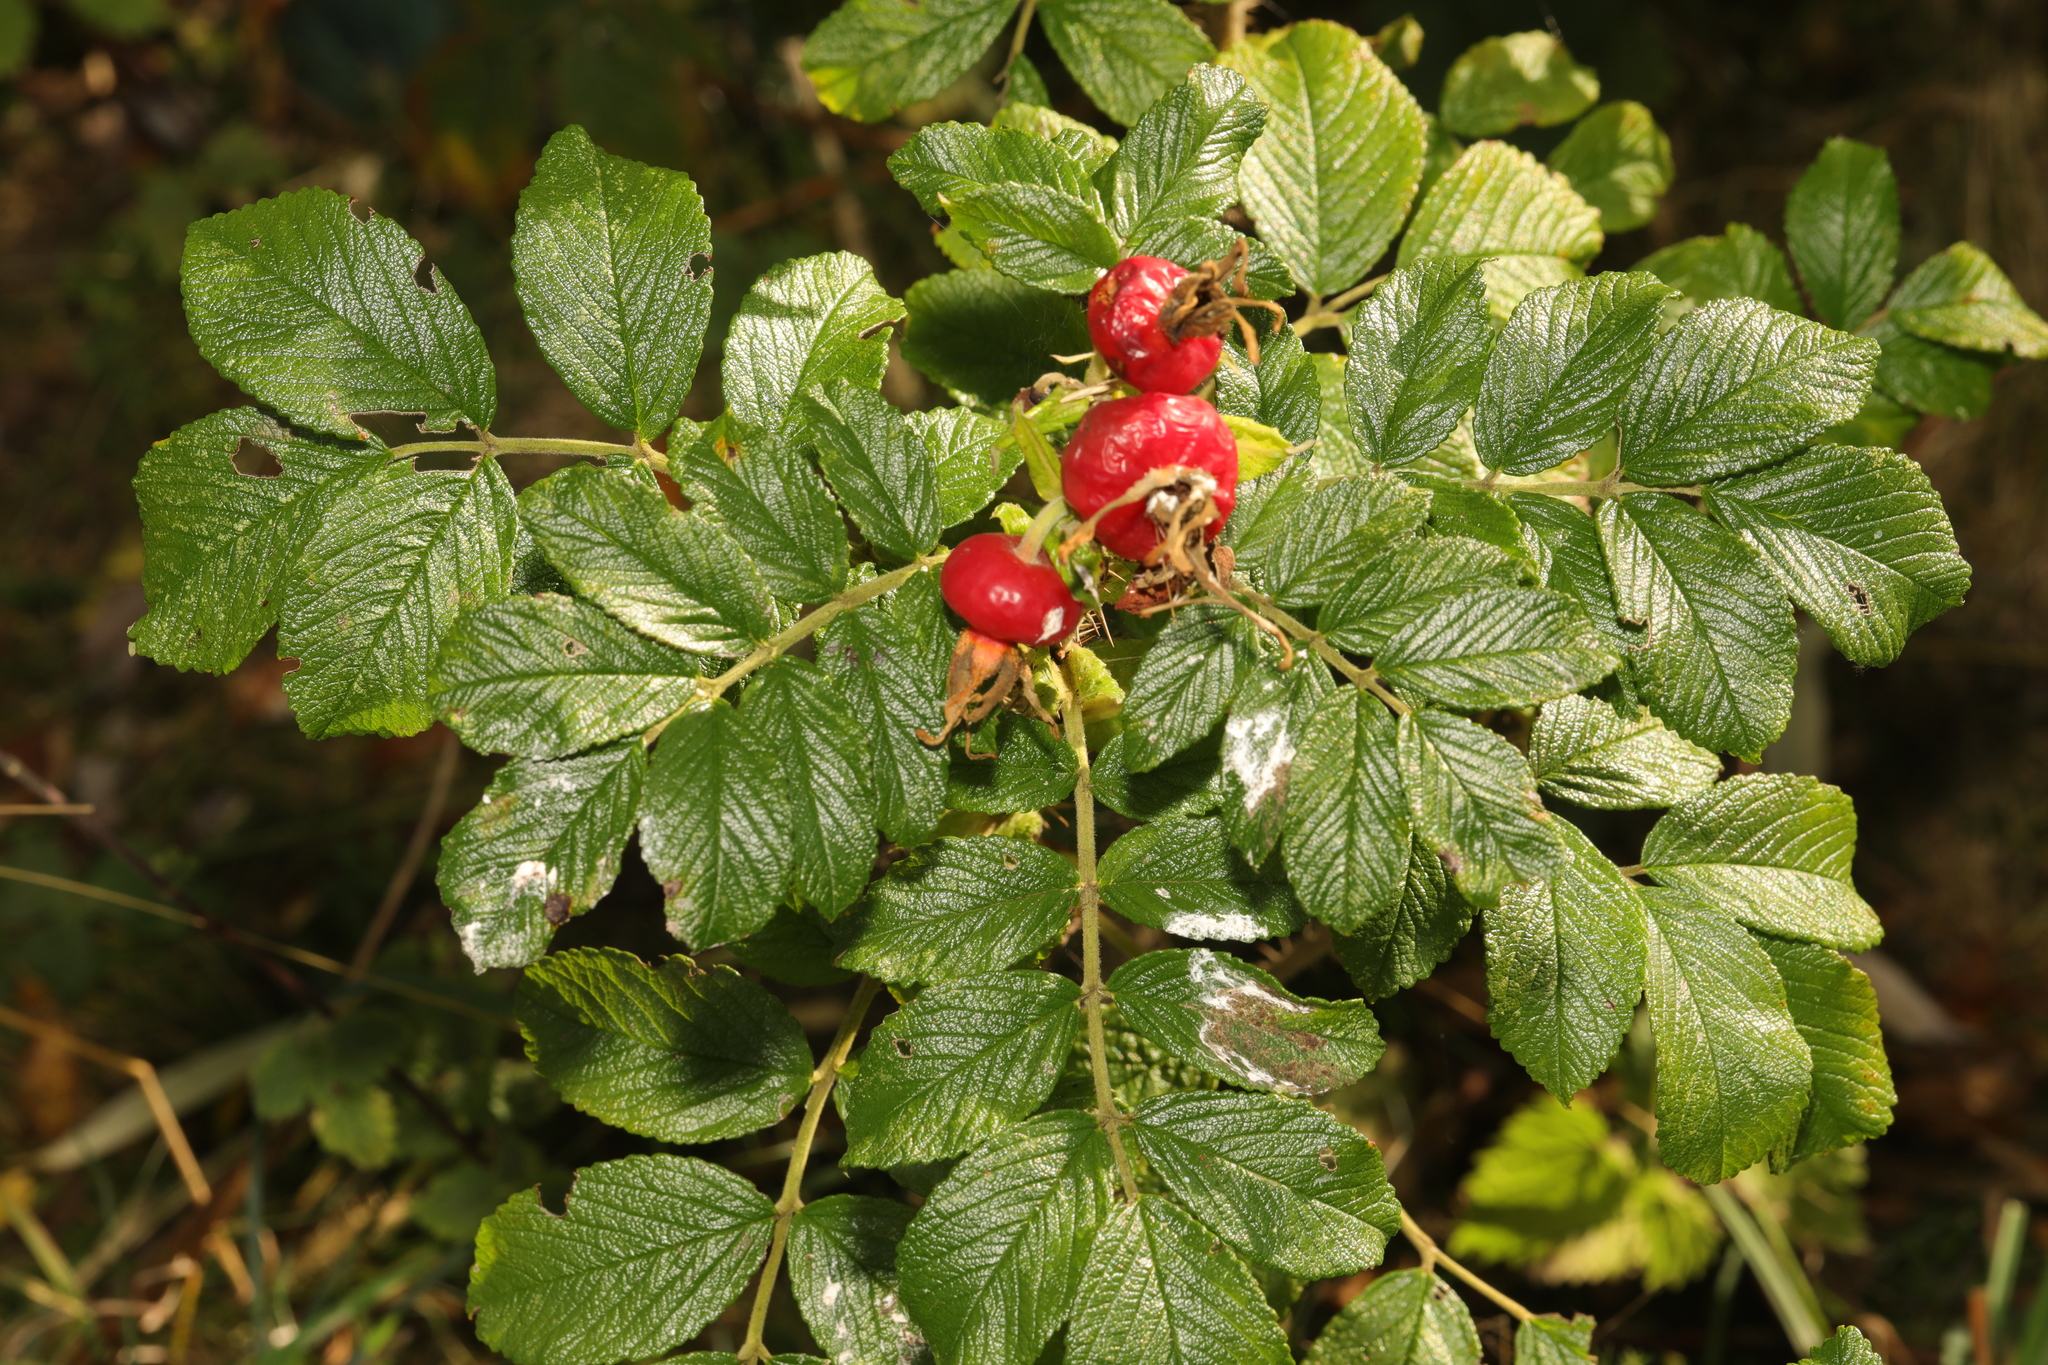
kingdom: Plantae
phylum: Tracheophyta
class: Magnoliopsida
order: Rosales
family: Rosaceae
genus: Rosa
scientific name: Rosa rugosa
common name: Japanese rose
